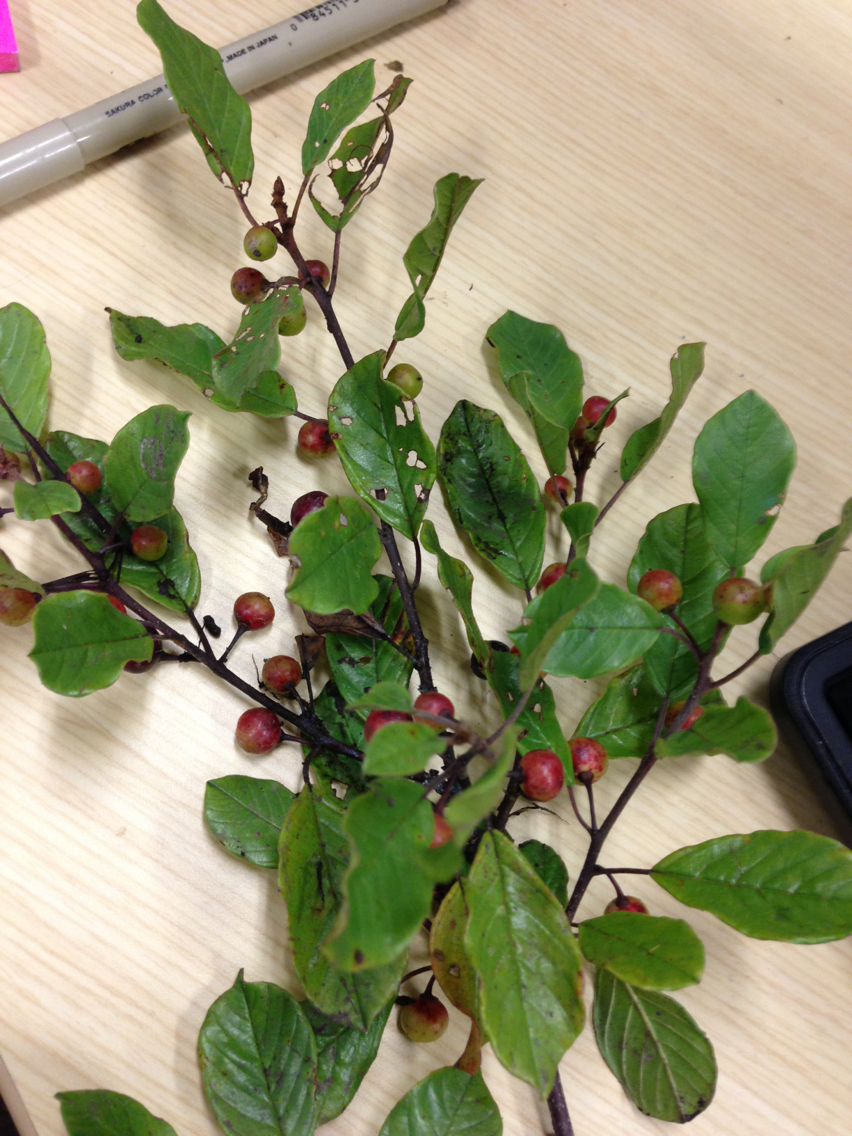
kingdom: Plantae
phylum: Tracheophyta
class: Magnoliopsida
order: Rosales
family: Rhamnaceae
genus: Frangula
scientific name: Frangula alnus
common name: Alder buckthorn
